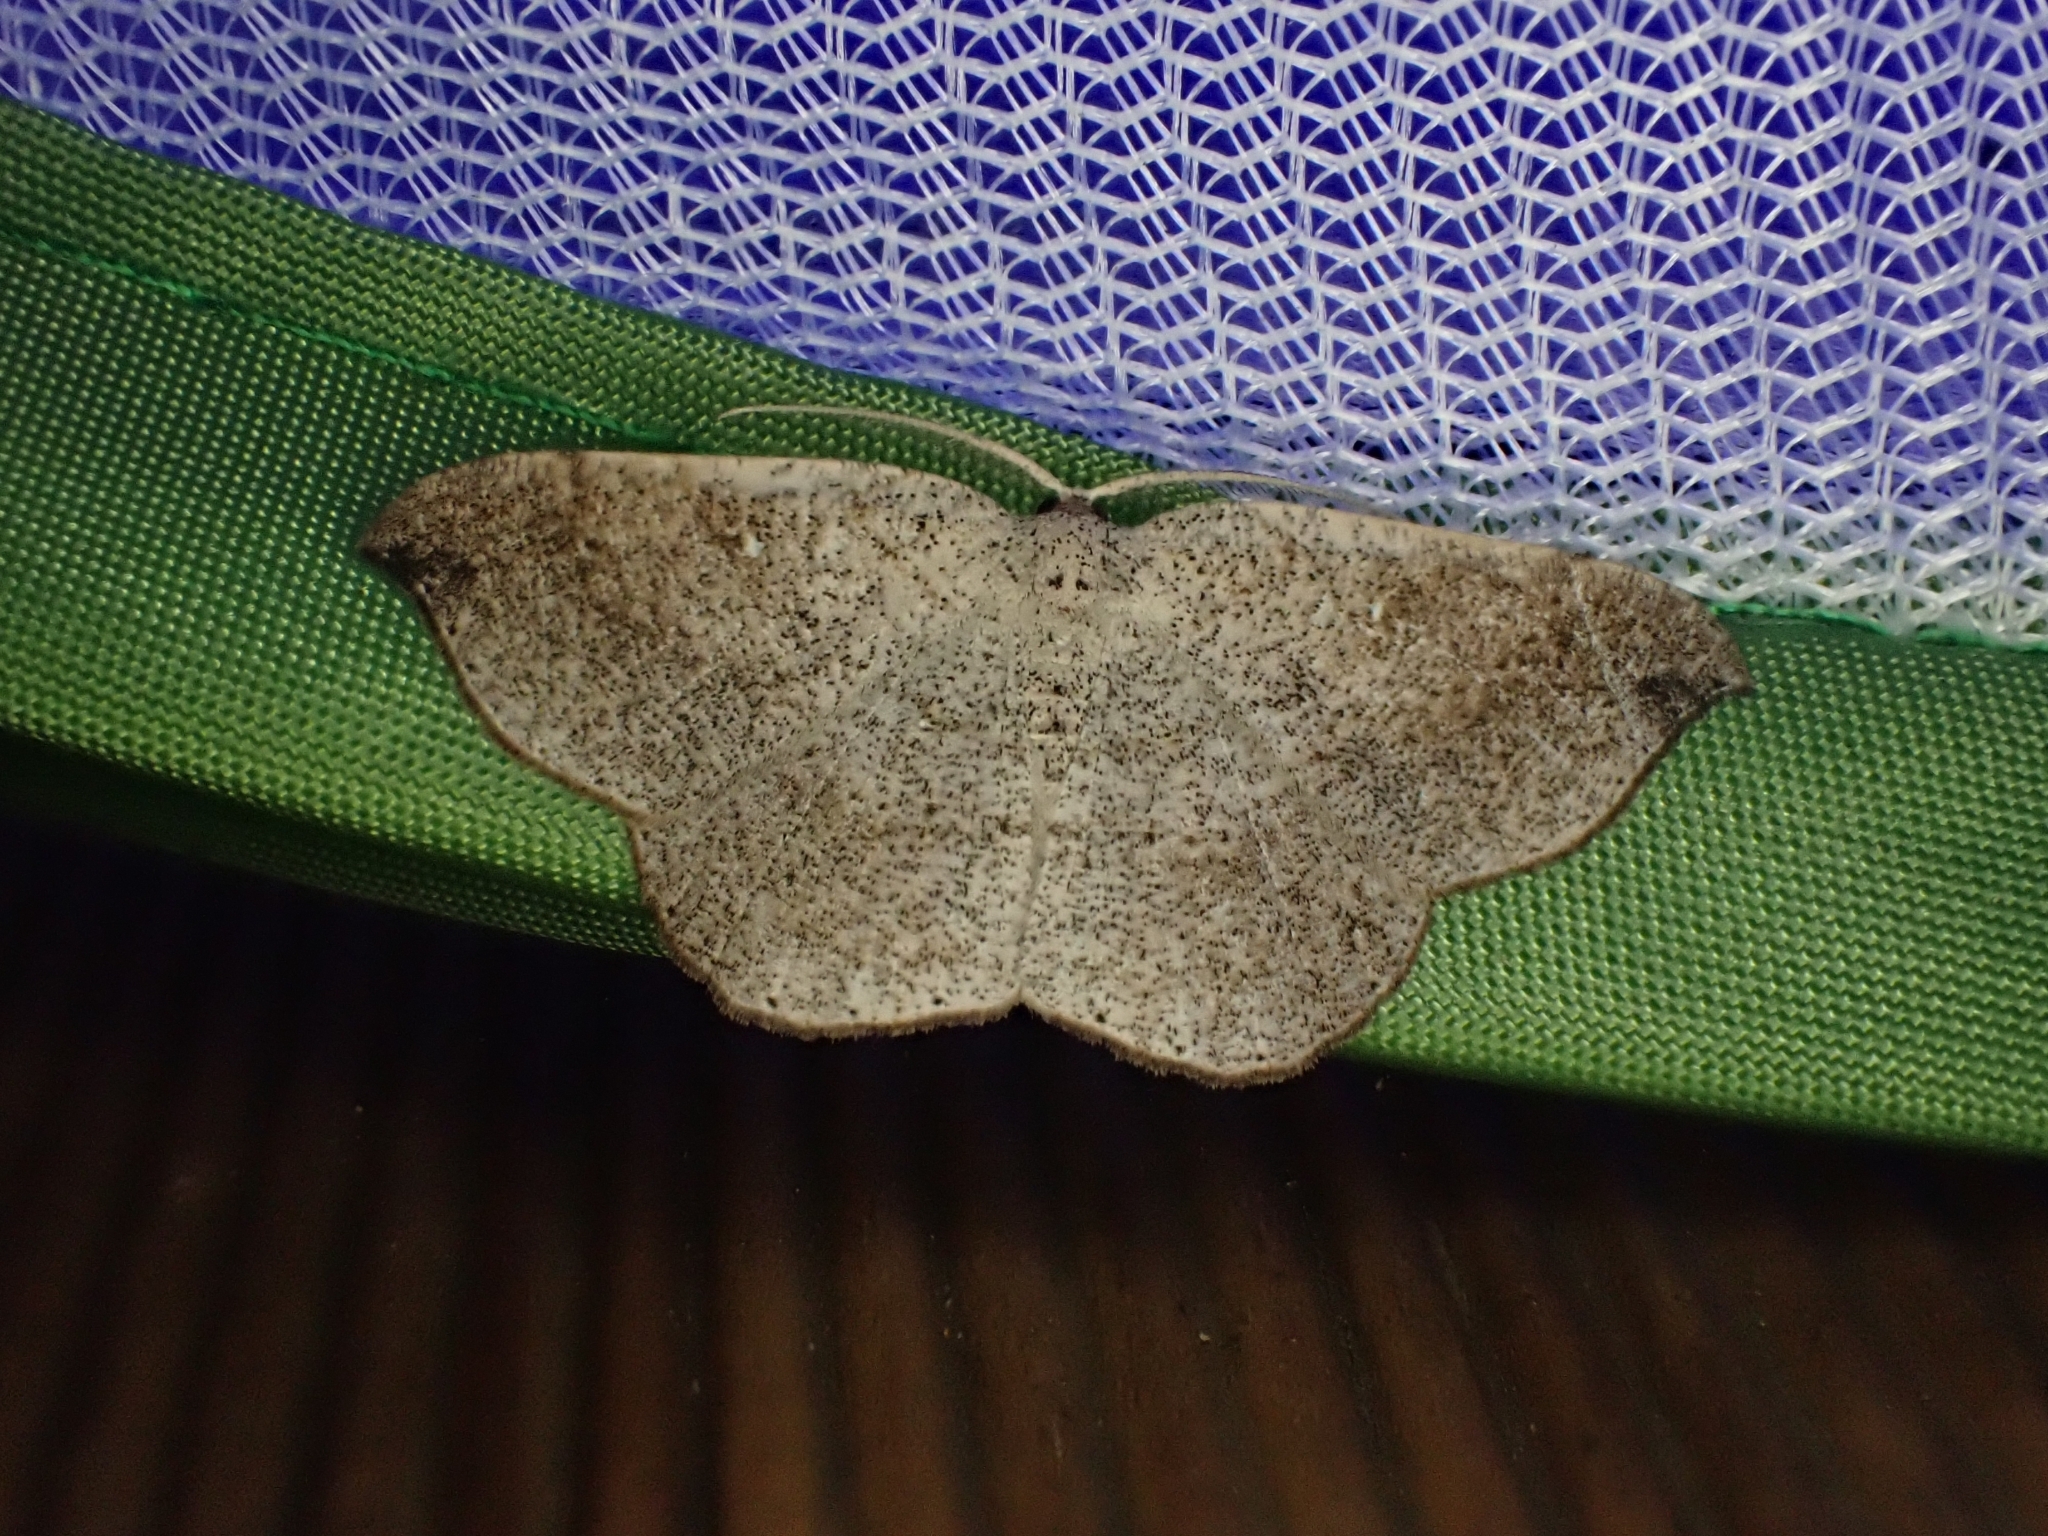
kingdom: Animalia
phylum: Arthropoda
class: Insecta
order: Lepidoptera
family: Geometridae
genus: Epigynopteryx
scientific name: Epigynopteryx ommatoclesis
